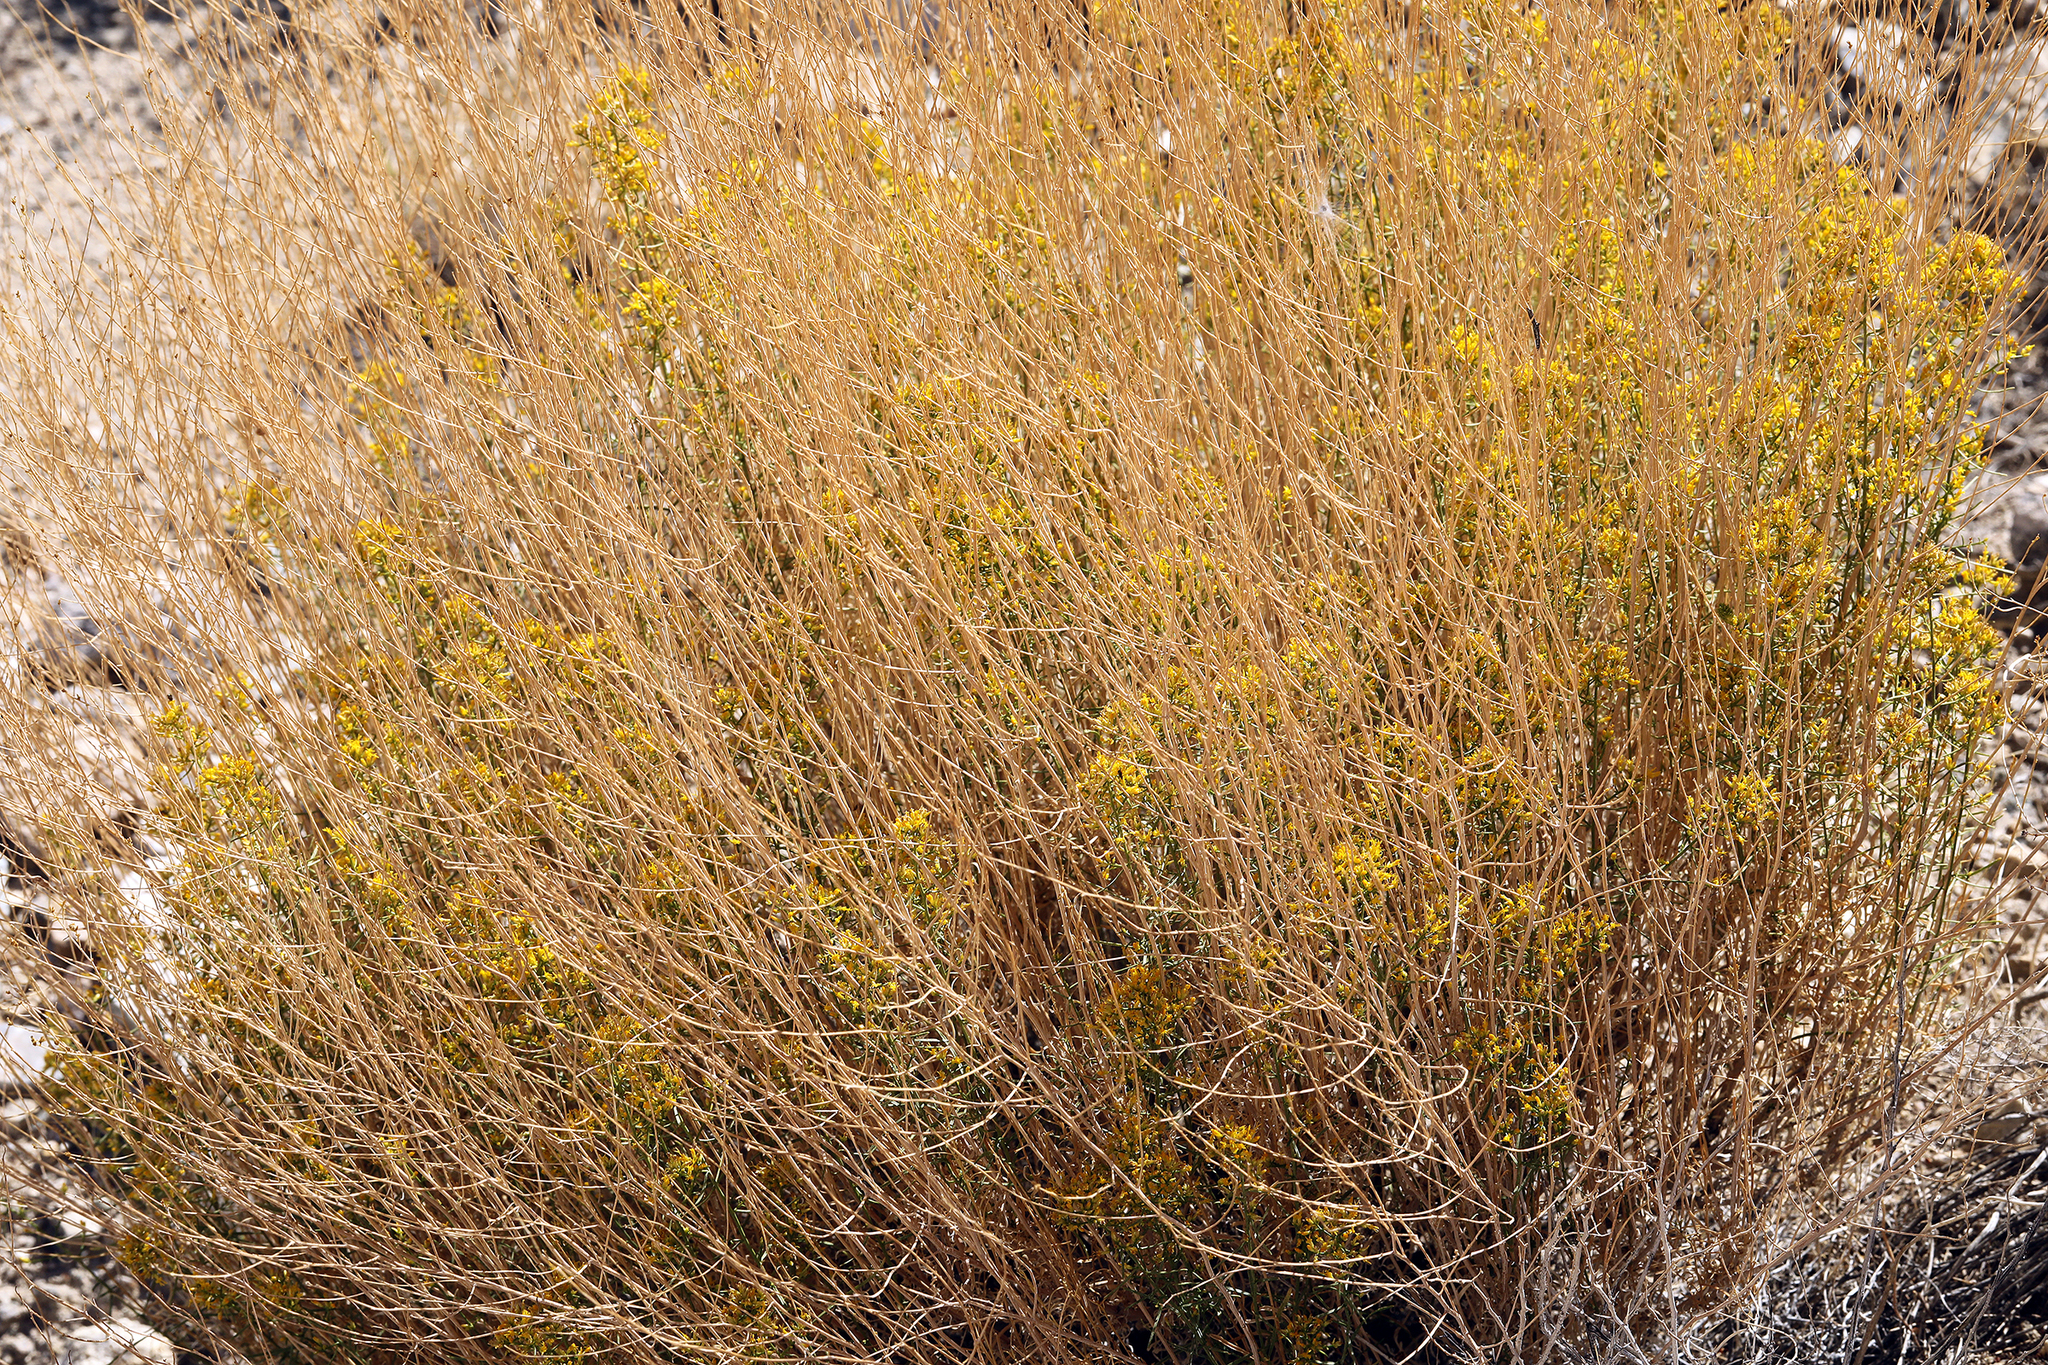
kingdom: Plantae
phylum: Tracheophyta
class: Magnoliopsida
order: Asterales
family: Asteraceae
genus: Gutierrezia
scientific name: Gutierrezia microcephala
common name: Thread snakeweed
